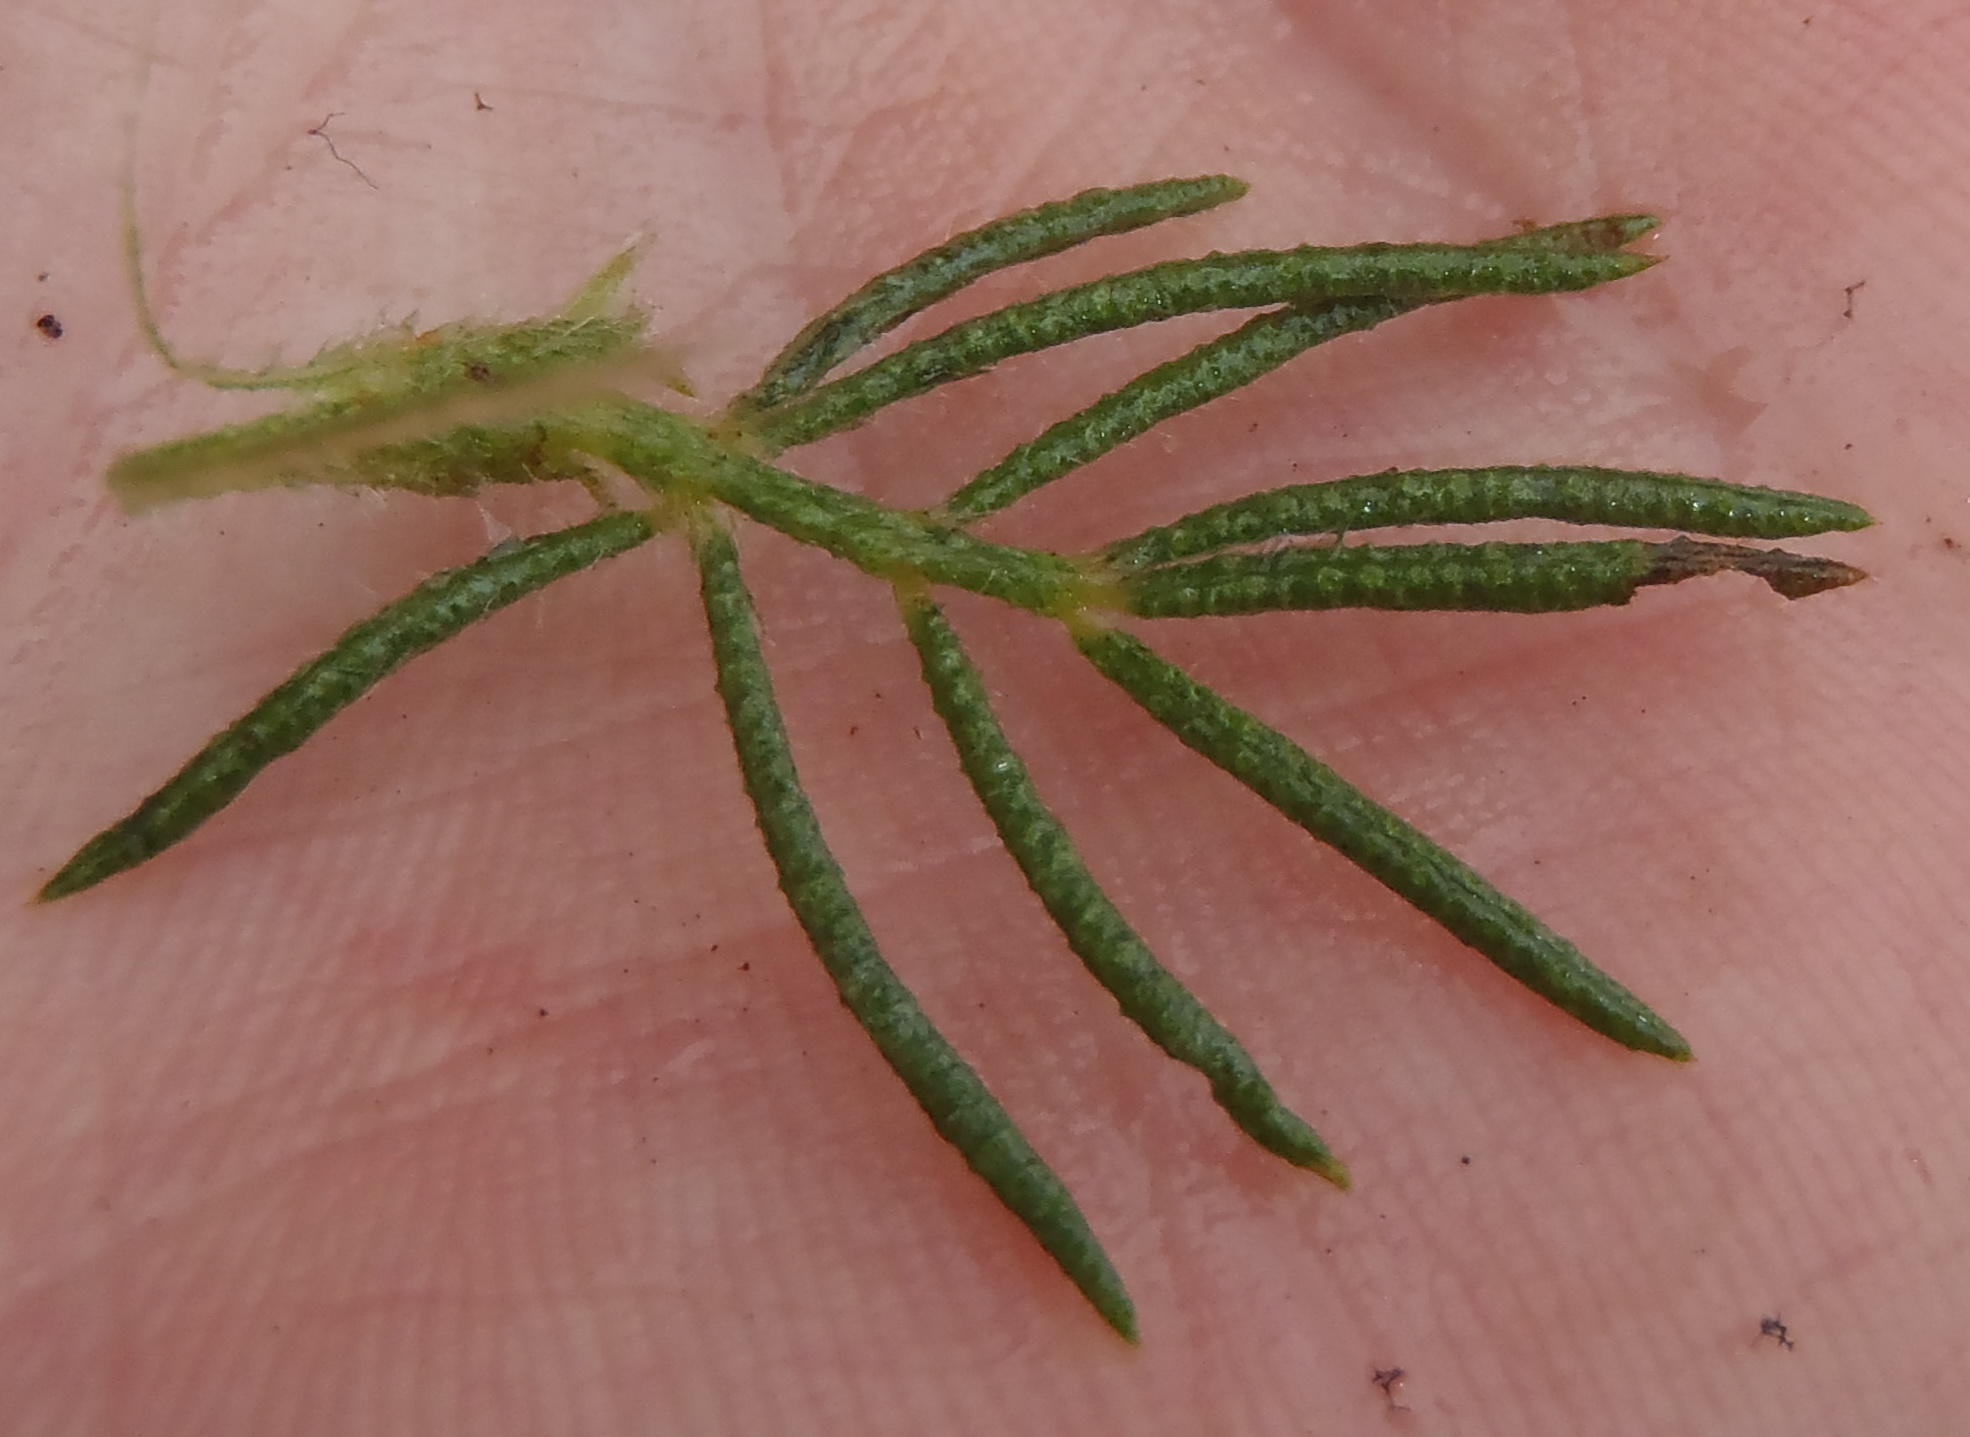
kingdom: Plantae
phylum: Tracheophyta
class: Magnoliopsida
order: Fabales
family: Fabaceae
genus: Psoralea
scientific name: Psoralea floccosa
